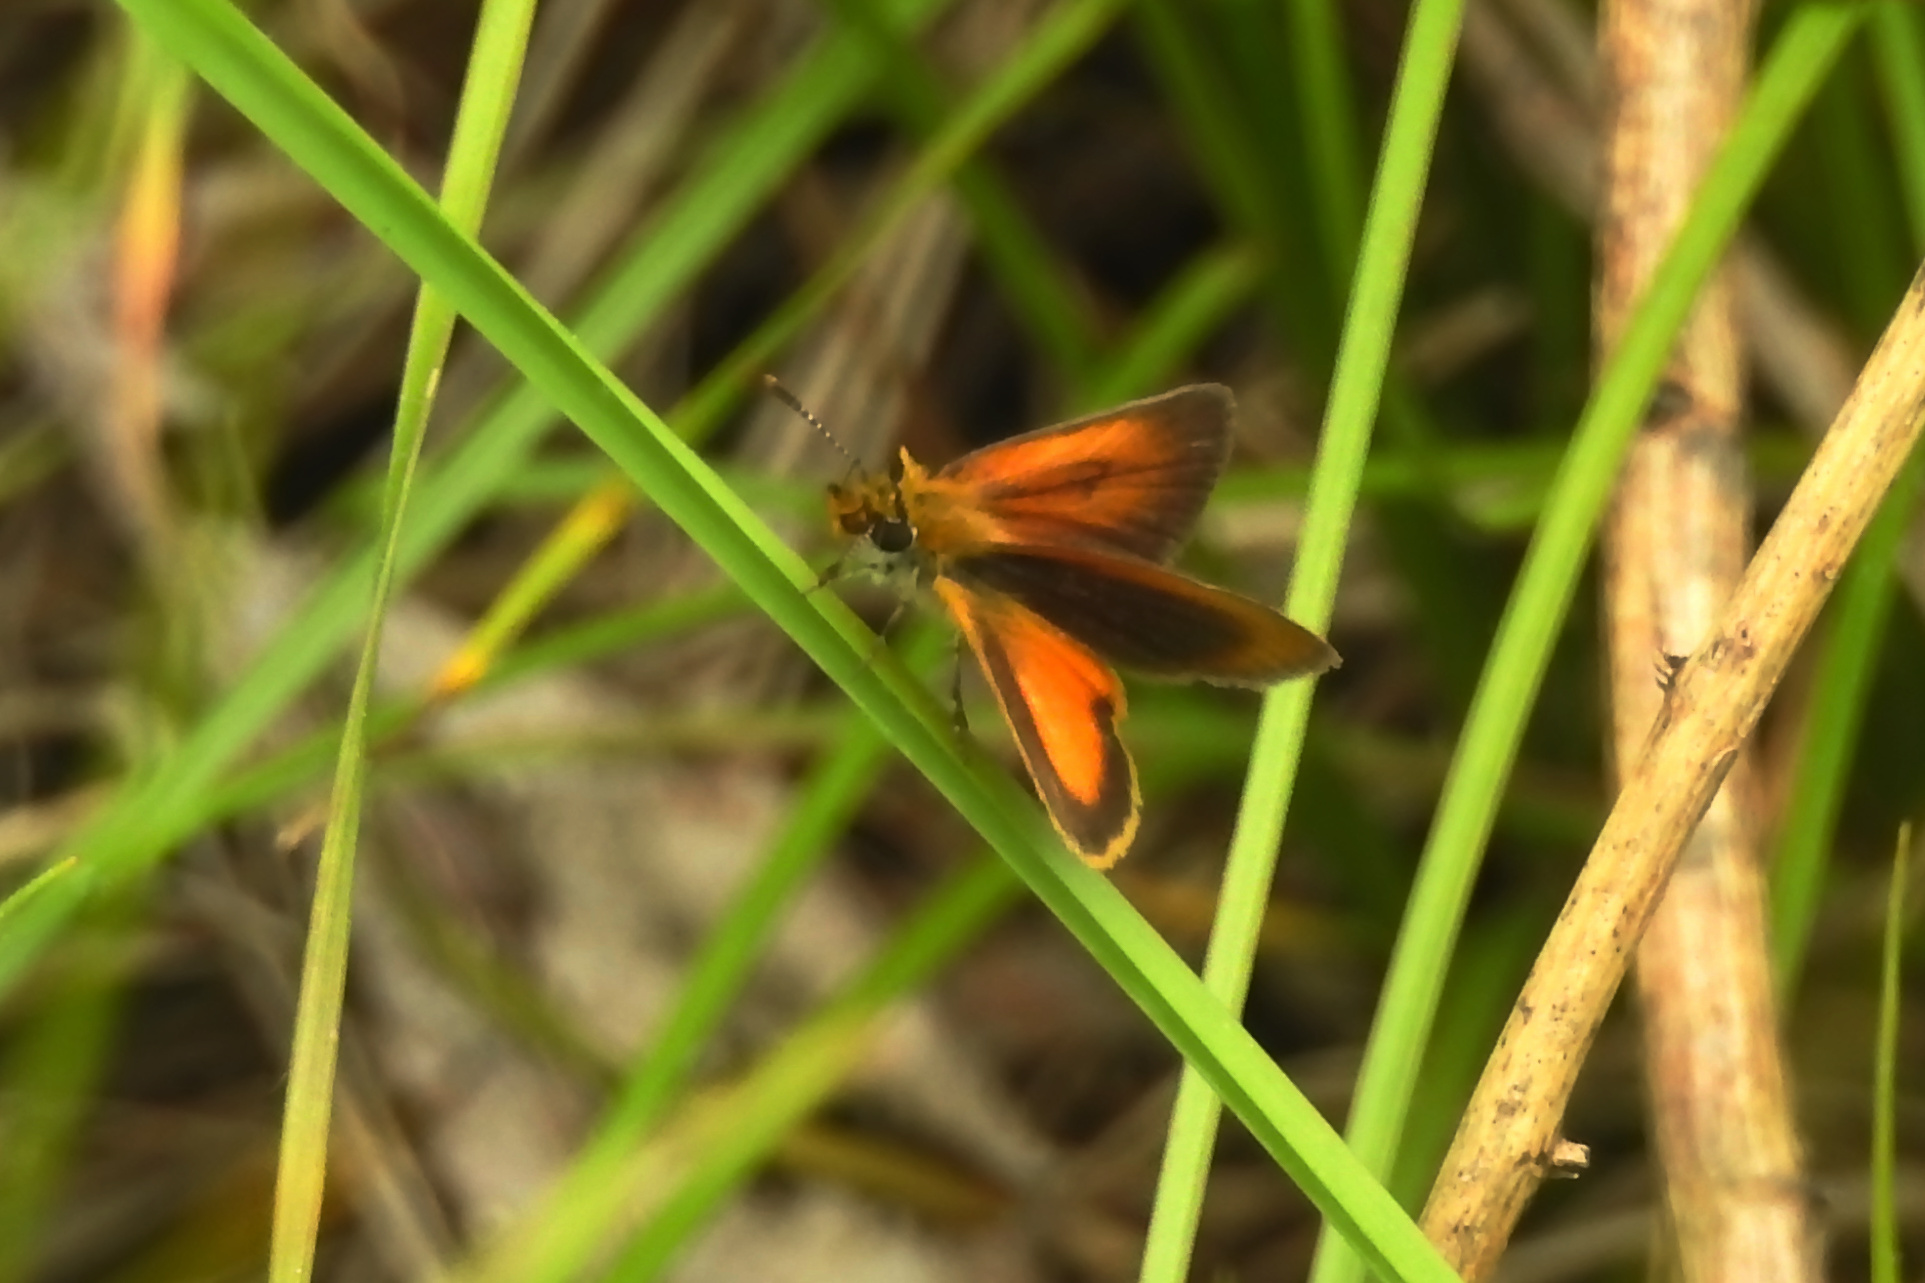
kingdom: Animalia
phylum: Arthropoda
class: Insecta
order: Lepidoptera
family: Hesperiidae
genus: Ancyloxypha
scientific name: Ancyloxypha numitor
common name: Least skipper
